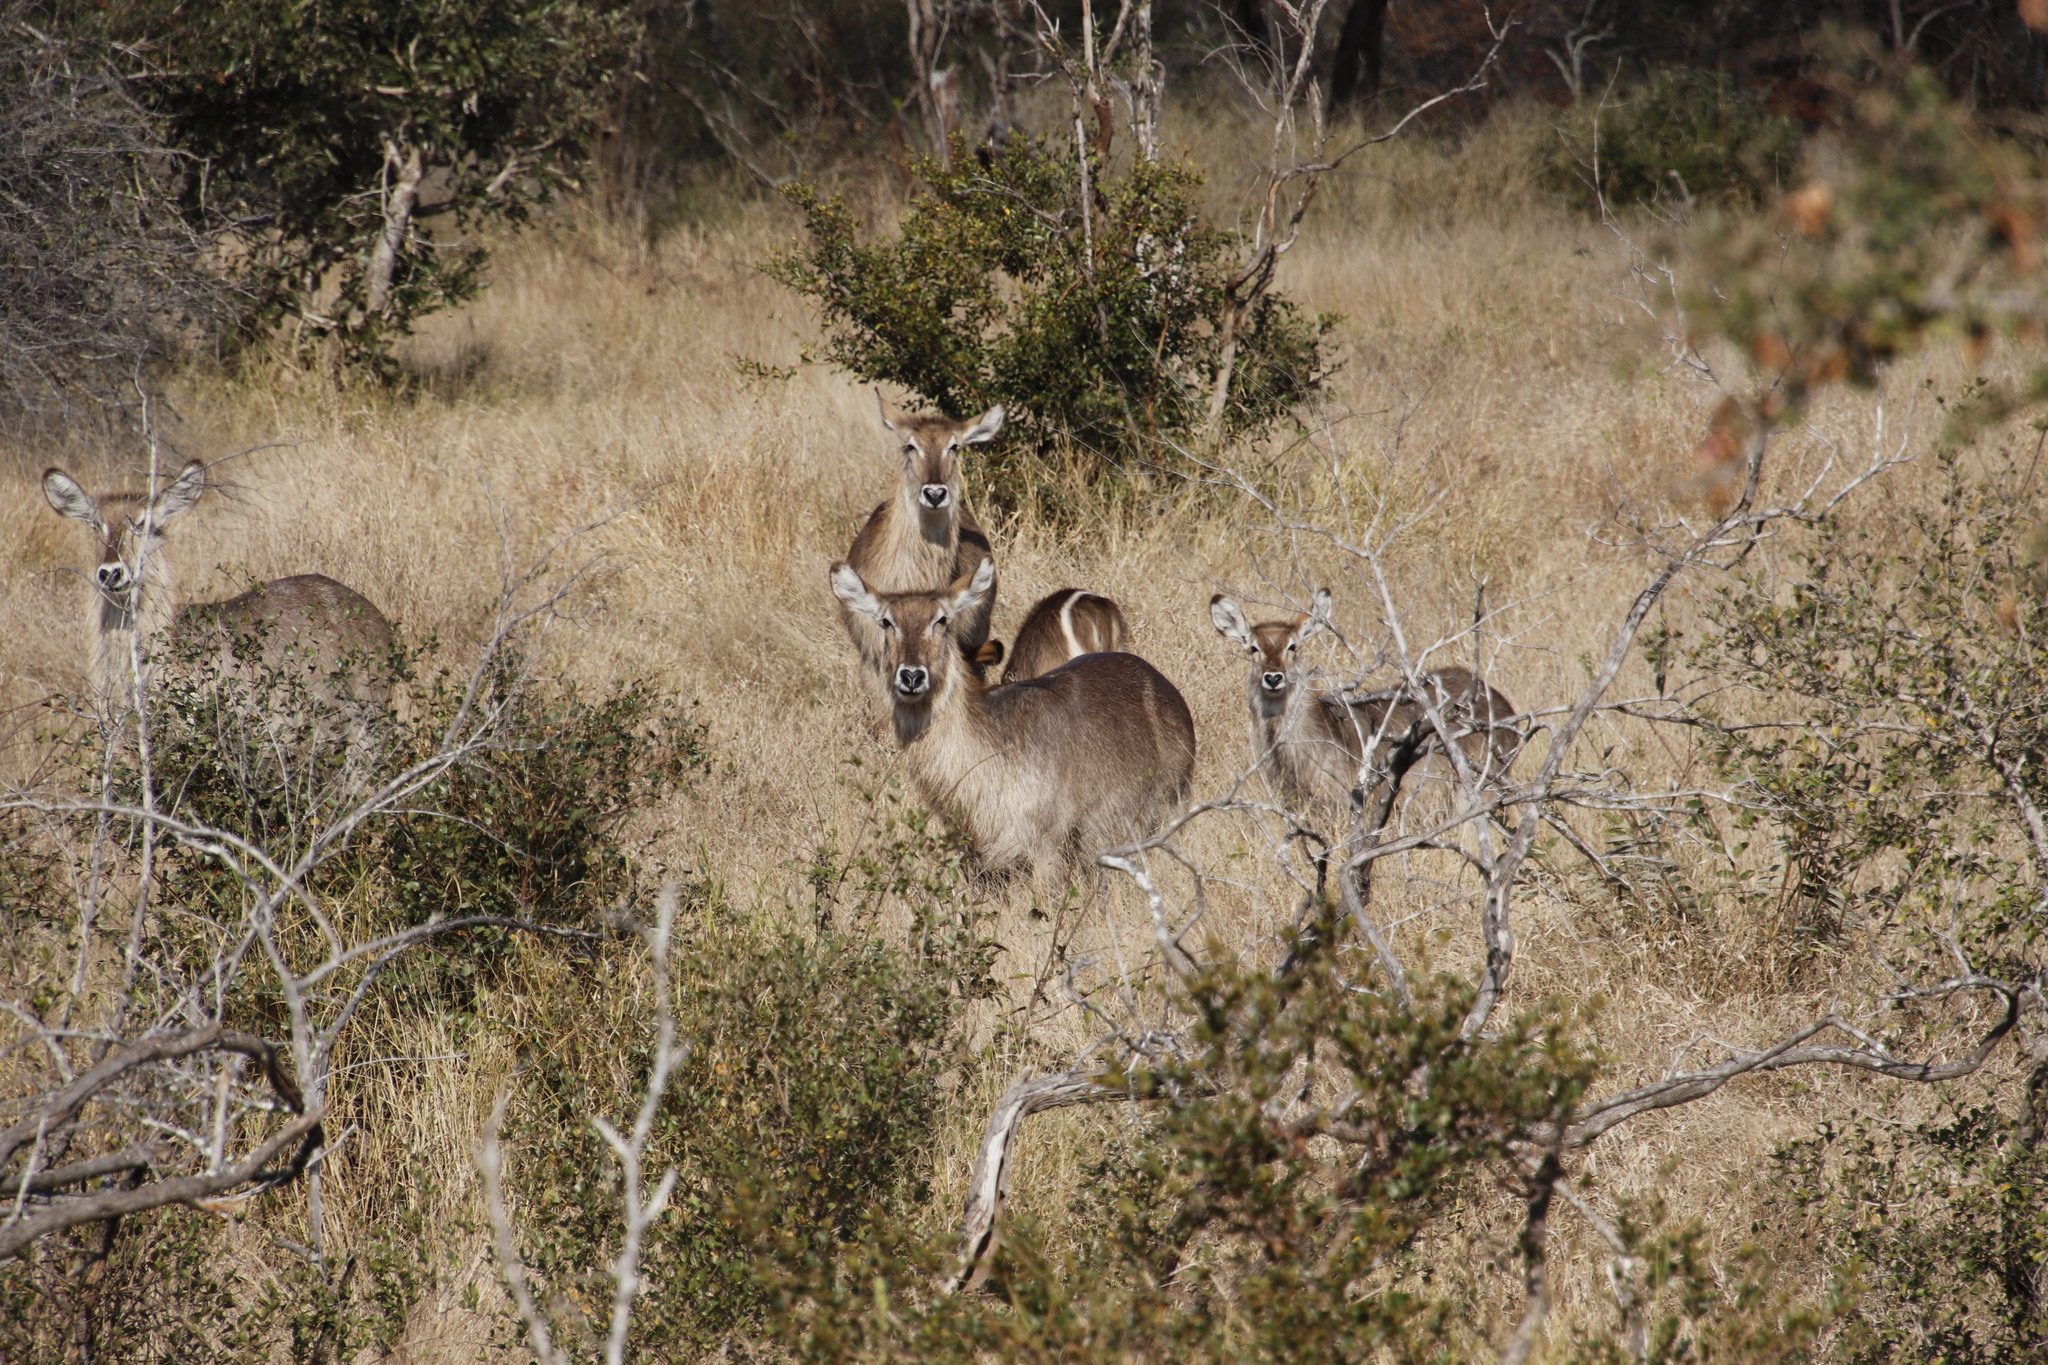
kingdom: Animalia
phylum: Chordata
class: Mammalia
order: Artiodactyla
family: Bovidae
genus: Kobus
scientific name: Kobus ellipsiprymnus
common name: Waterbuck
